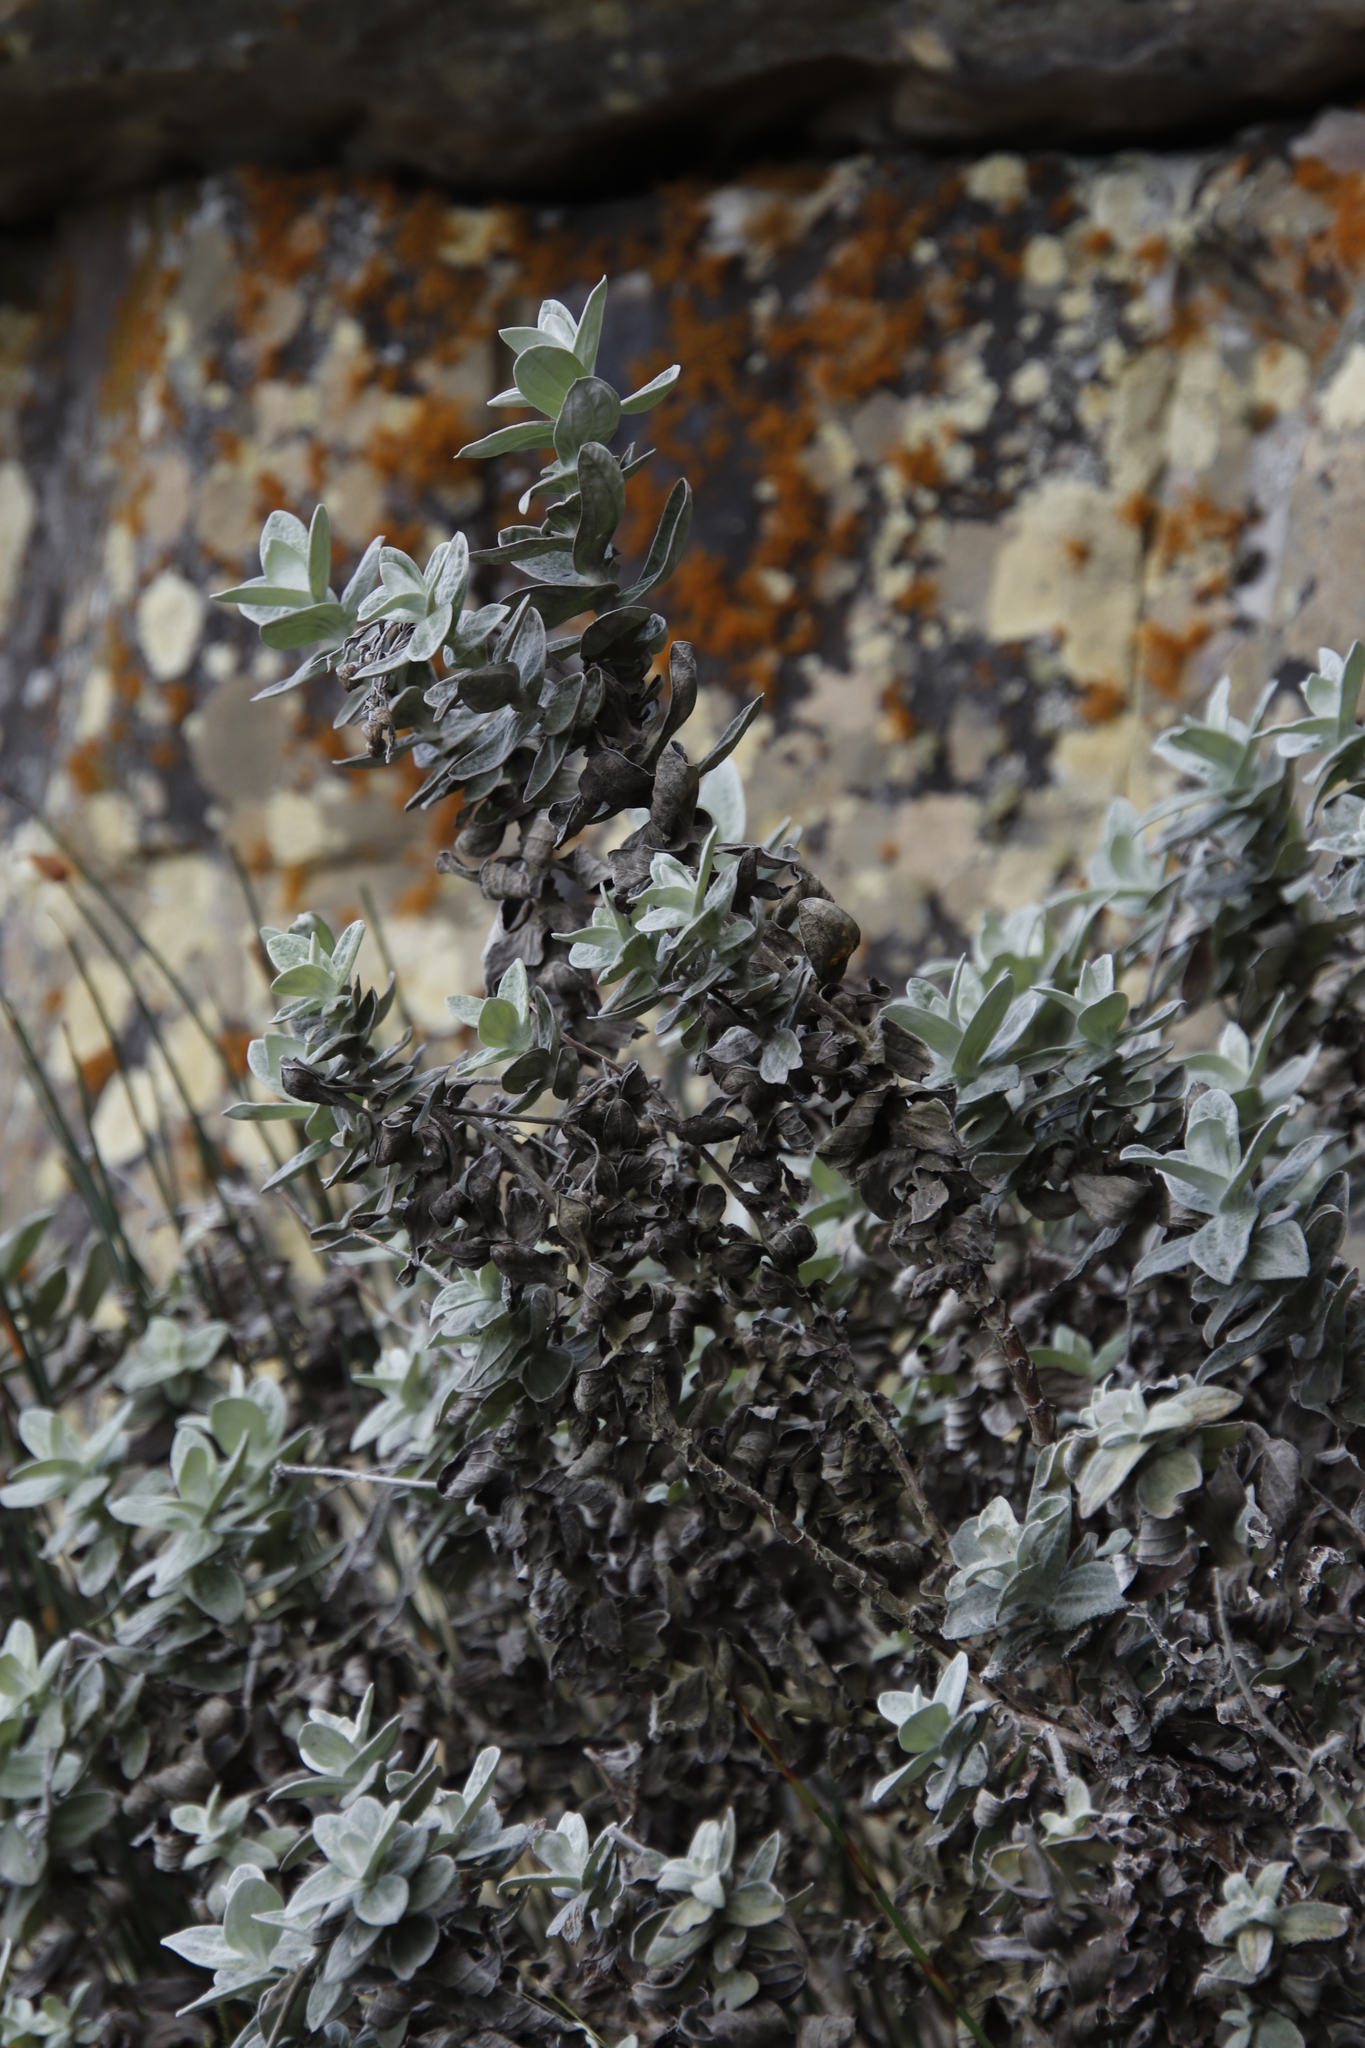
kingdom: Plantae
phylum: Tracheophyta
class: Magnoliopsida
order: Asterales
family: Asteraceae
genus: Helichrysum
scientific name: Helichrysum fruticans
